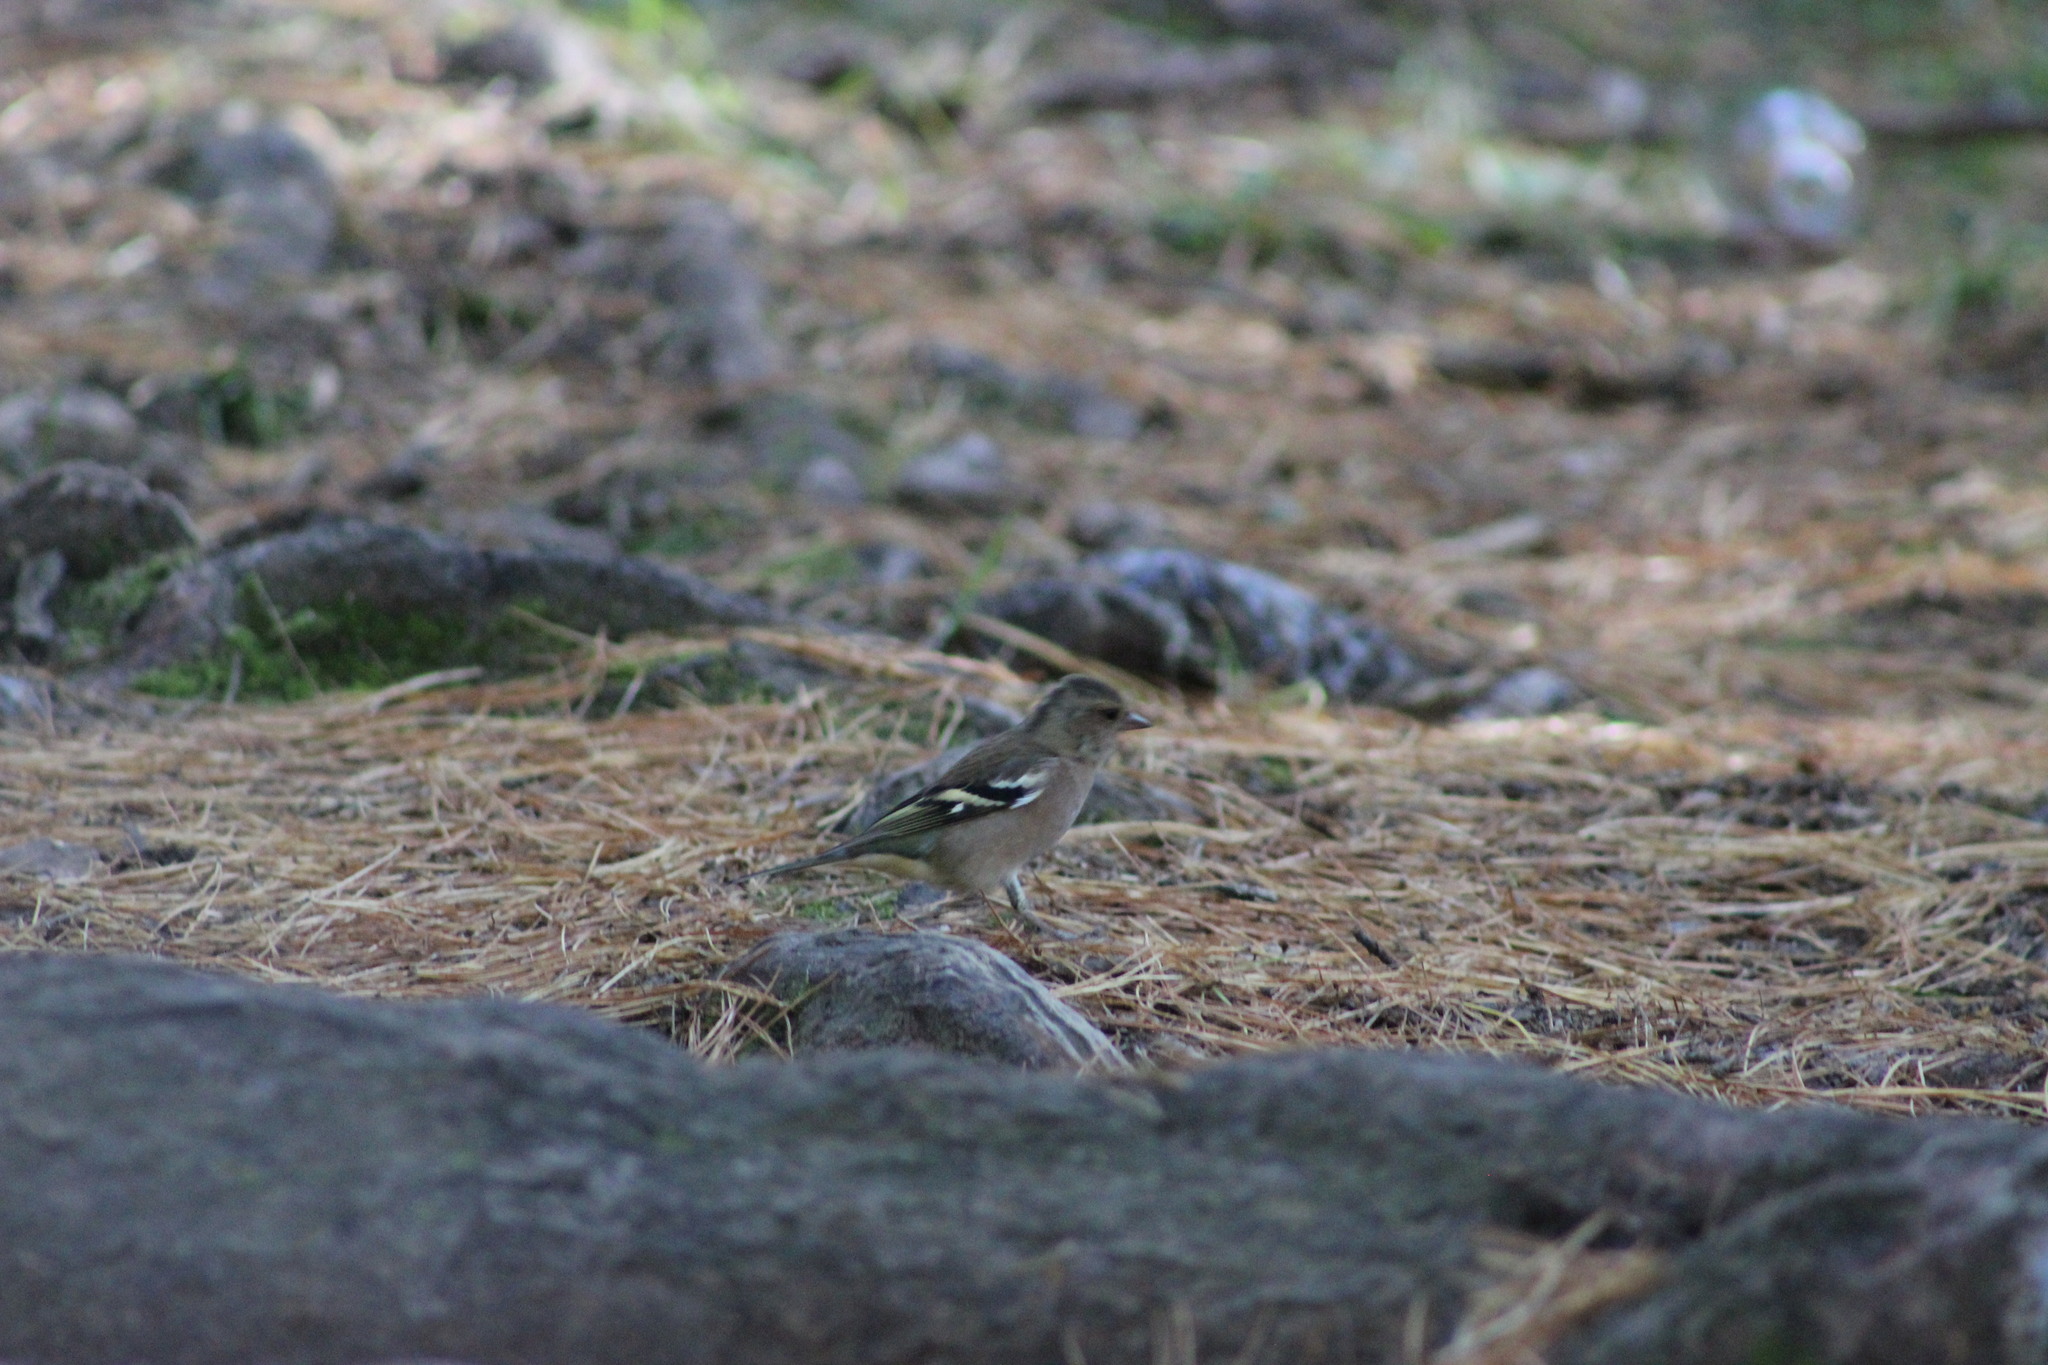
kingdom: Animalia
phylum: Chordata
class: Aves
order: Passeriformes
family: Fringillidae
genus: Fringilla
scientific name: Fringilla coelebs
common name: Common chaffinch
